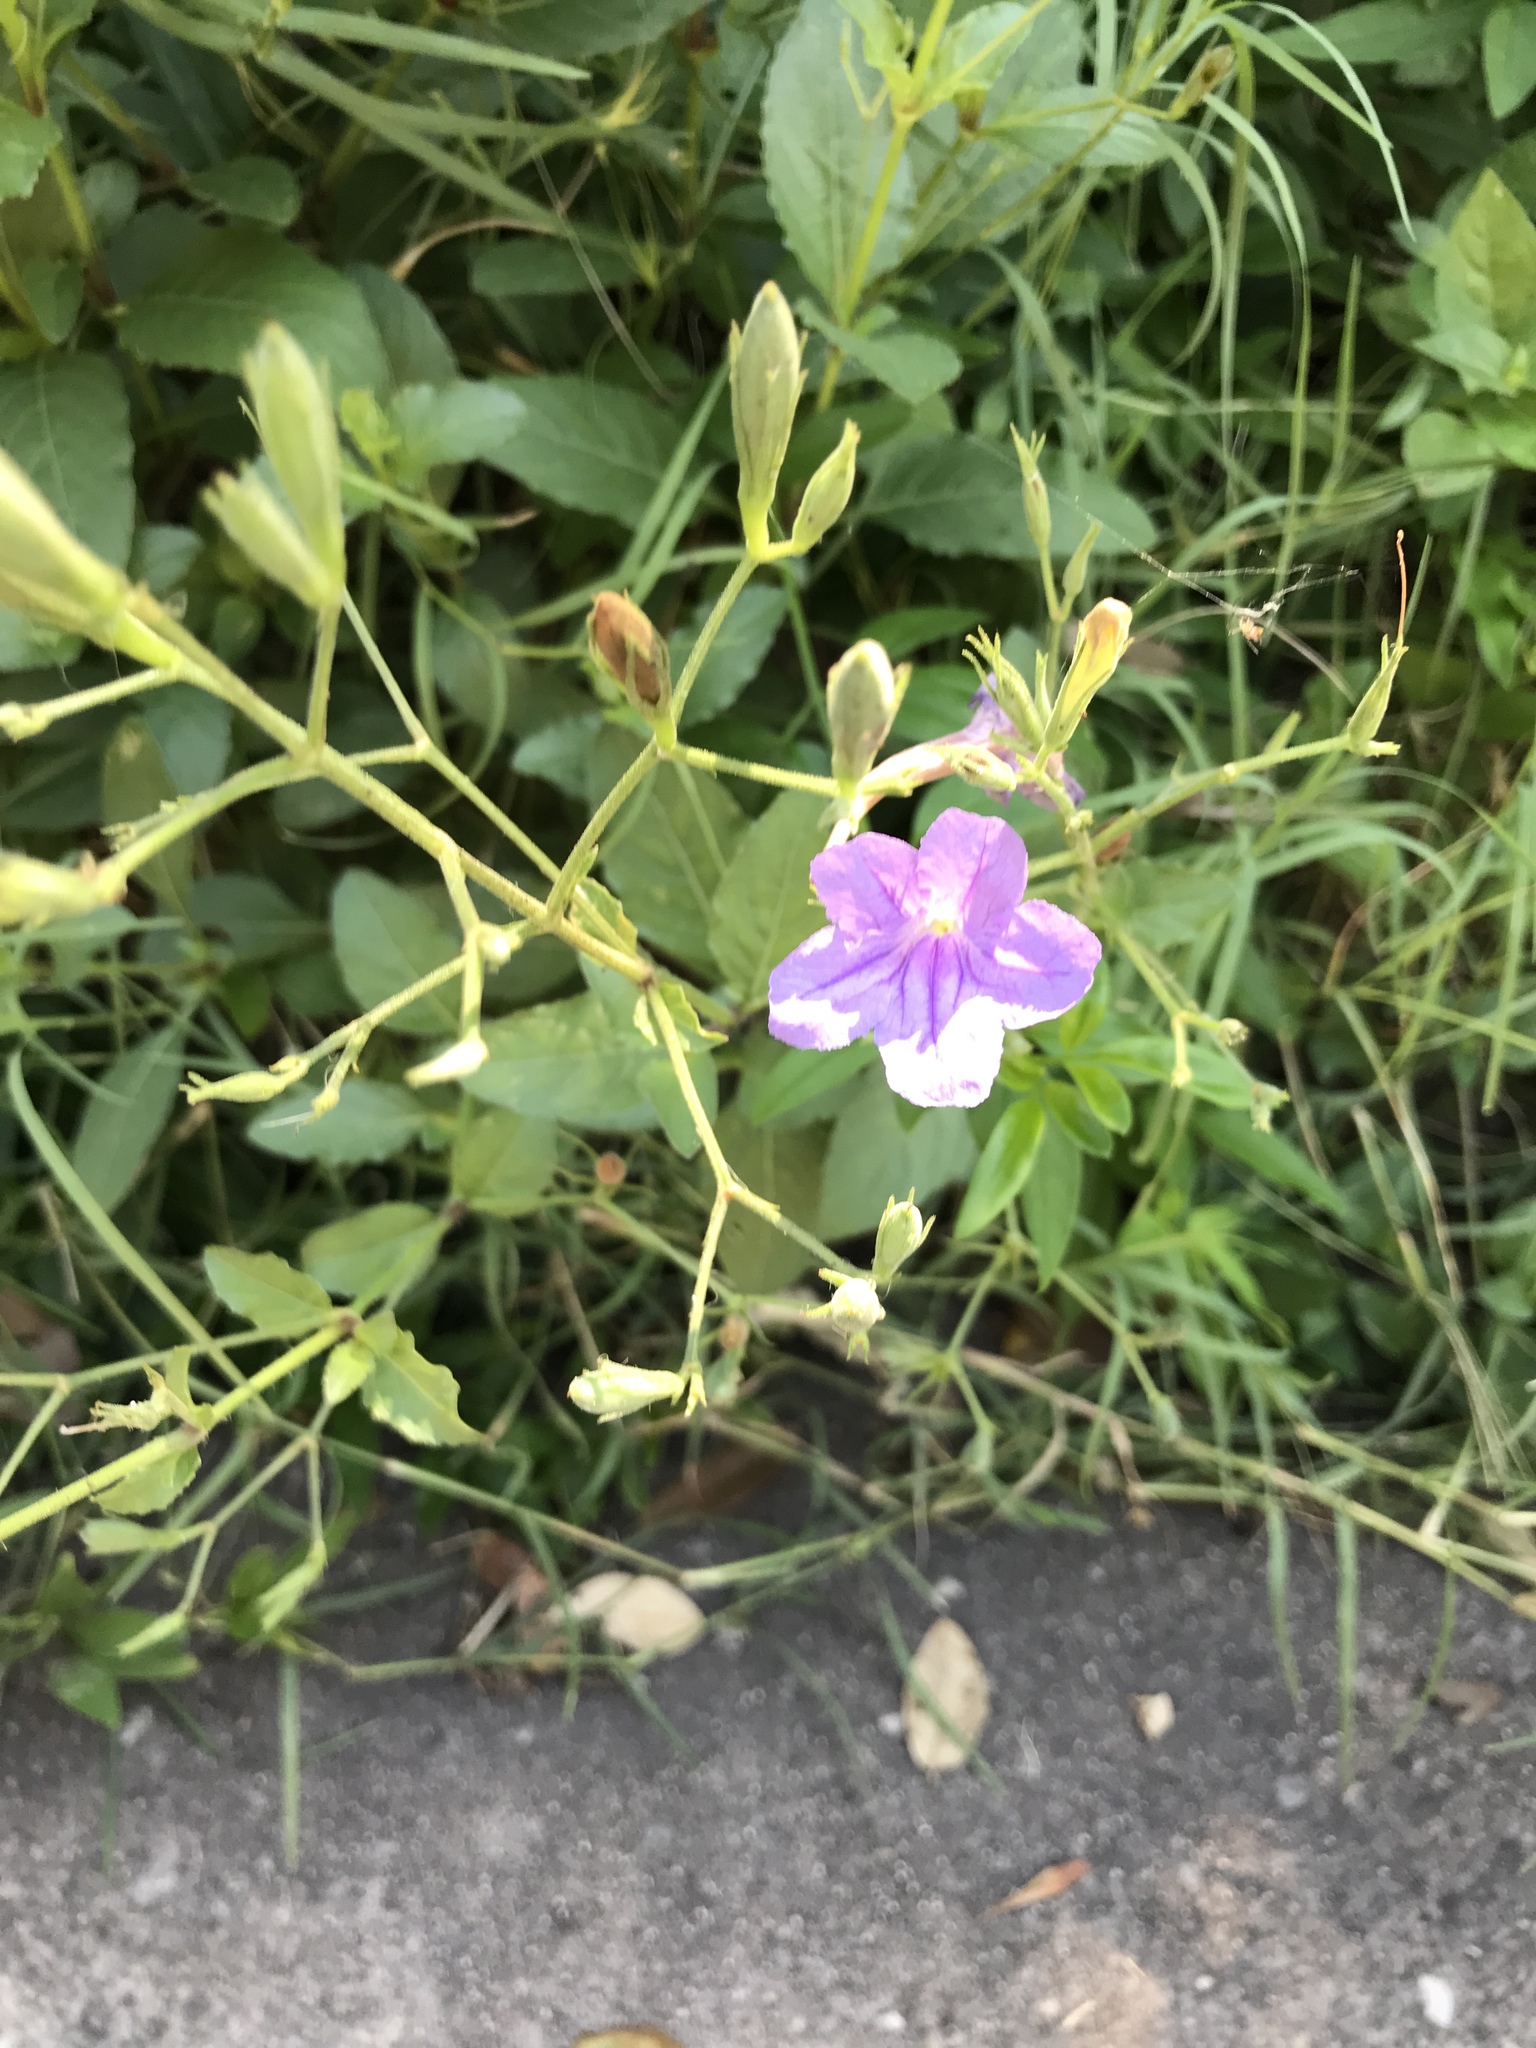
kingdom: Plantae
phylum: Tracheophyta
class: Magnoliopsida
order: Lamiales
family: Acanthaceae
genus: Ruellia
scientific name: Ruellia ciliatiflora
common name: Hairyflower wild petunia
